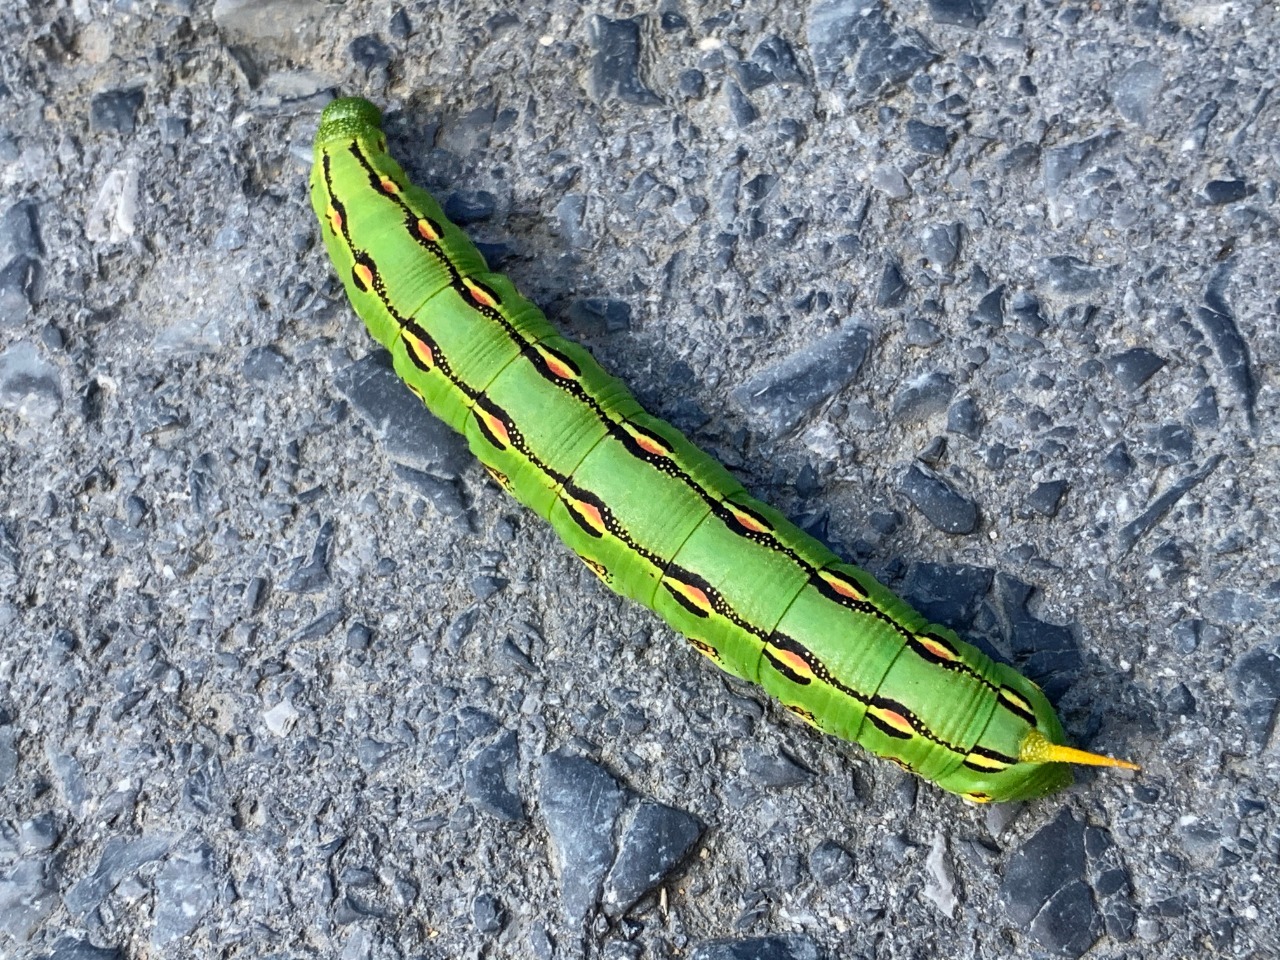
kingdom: Animalia
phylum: Arthropoda
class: Insecta
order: Lepidoptera
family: Sphingidae
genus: Hyles
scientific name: Hyles lineata
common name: White-lined sphinx
